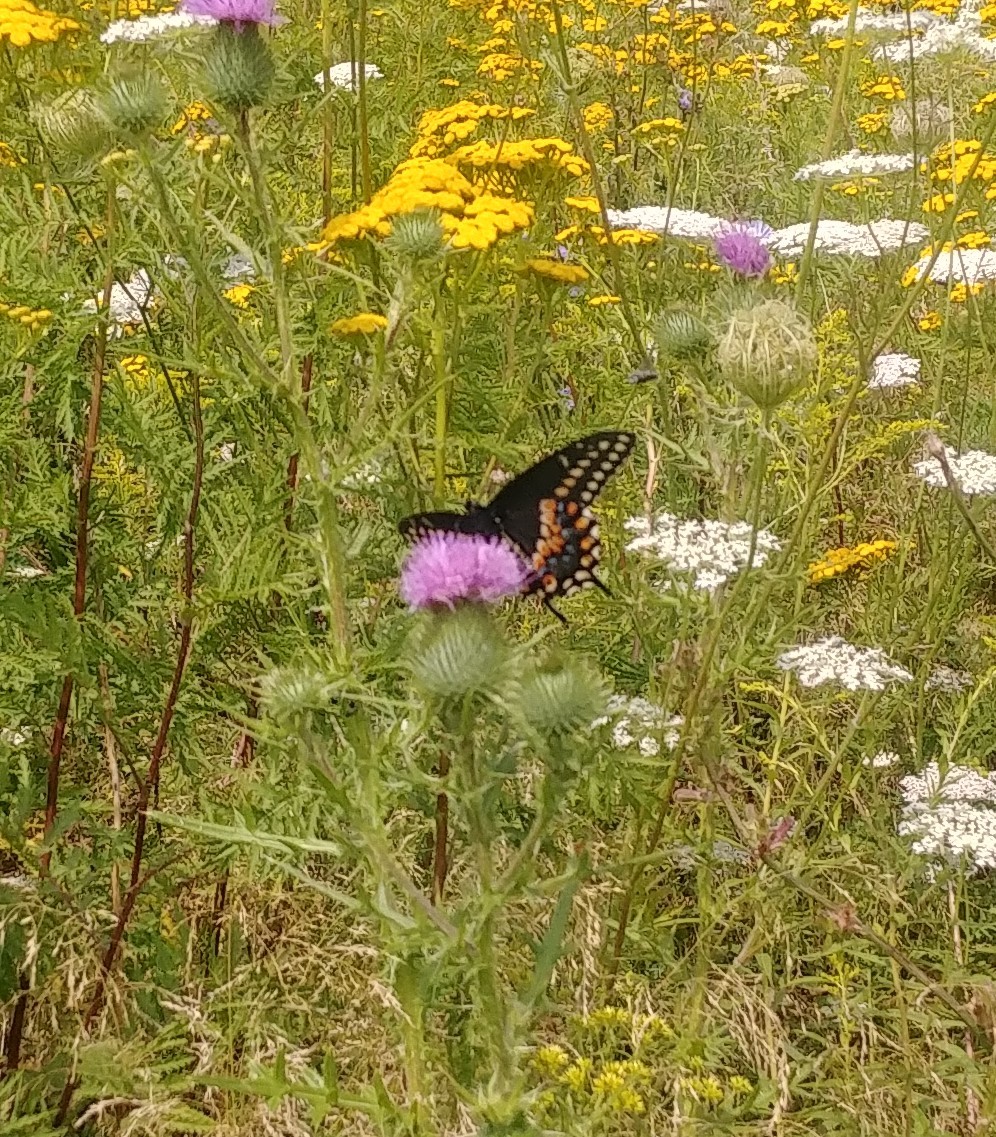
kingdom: Animalia
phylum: Arthropoda
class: Insecta
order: Lepidoptera
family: Papilionidae
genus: Papilio
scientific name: Papilio polyxenes
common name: Black swallowtail
